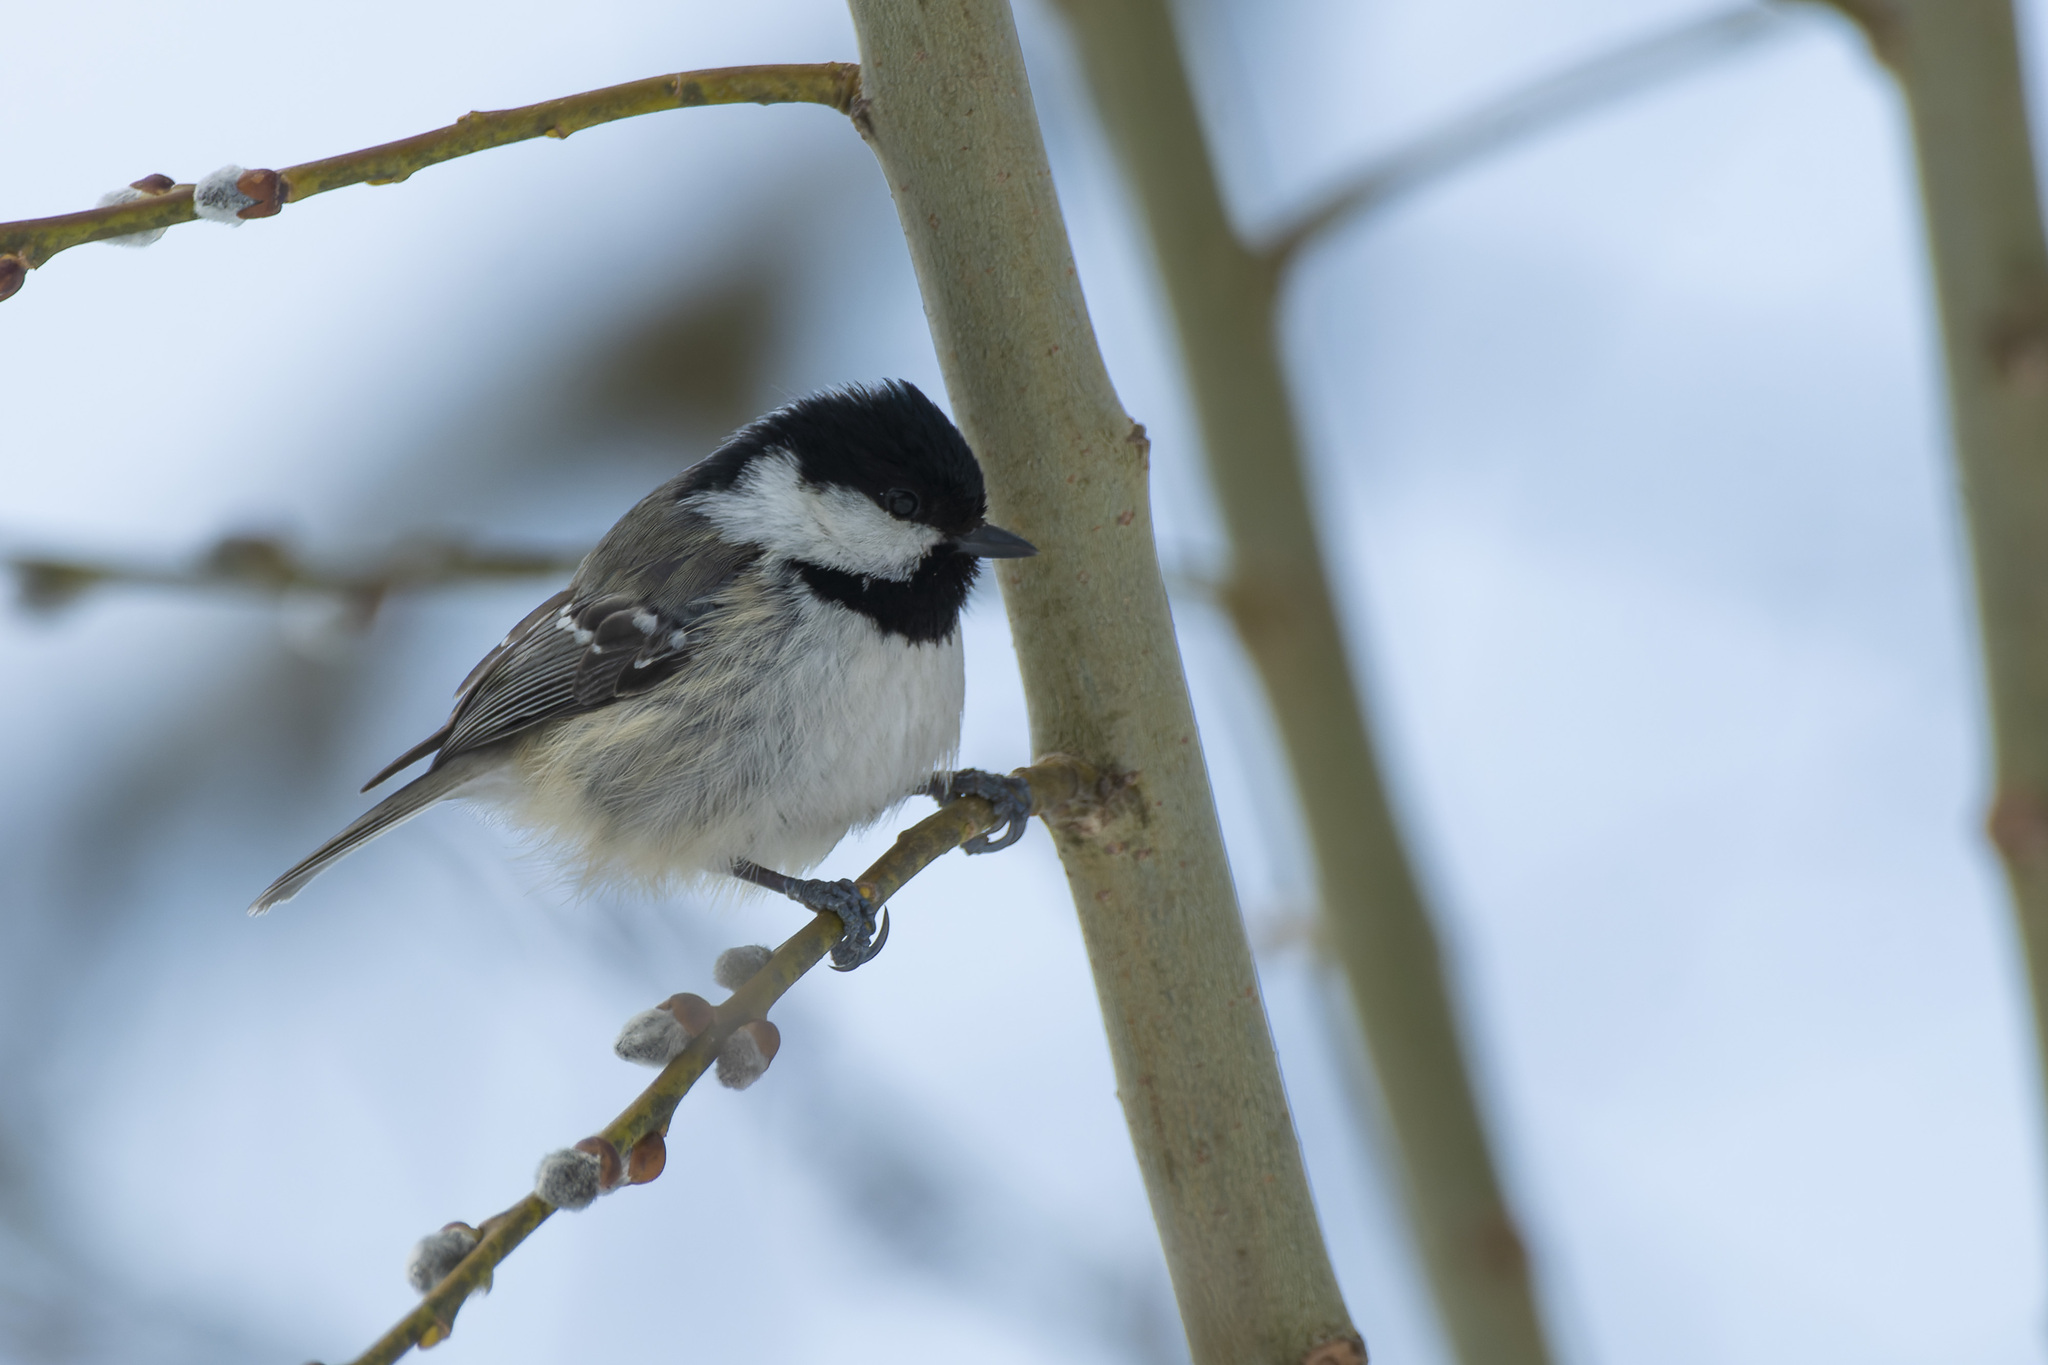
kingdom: Animalia
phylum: Chordata
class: Aves
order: Passeriformes
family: Paridae
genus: Periparus
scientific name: Periparus ater
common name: Coal tit
